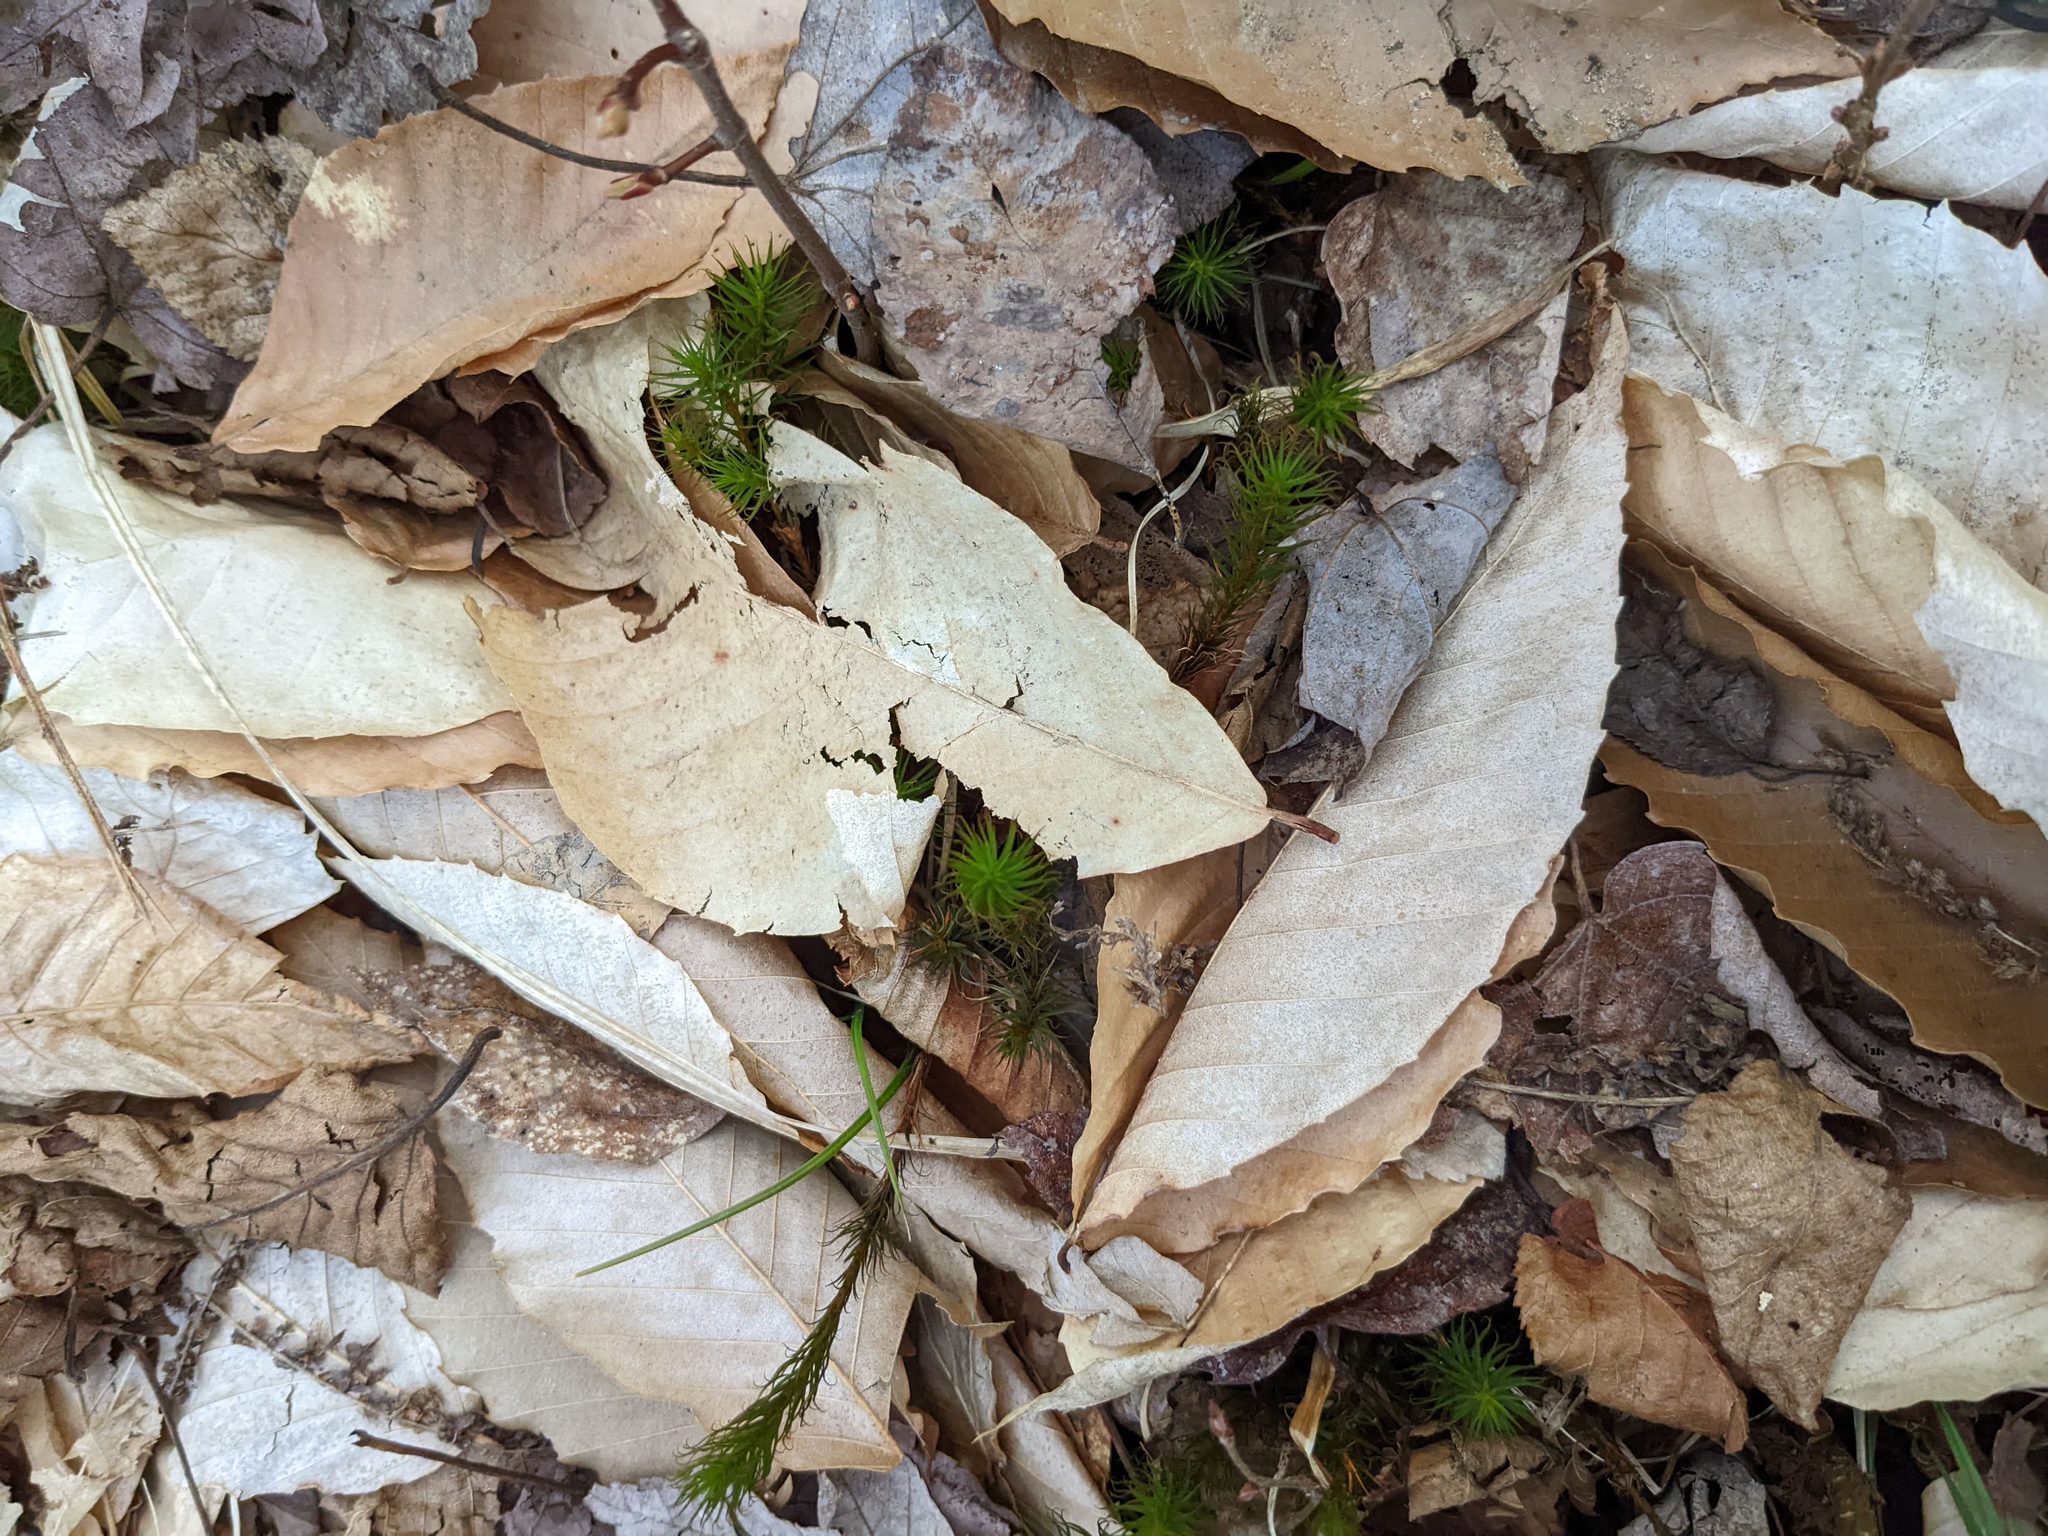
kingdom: Plantae
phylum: Tracheophyta
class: Magnoliopsida
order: Fagales
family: Fagaceae
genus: Fagus
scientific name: Fagus grandifolia
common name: American beech
